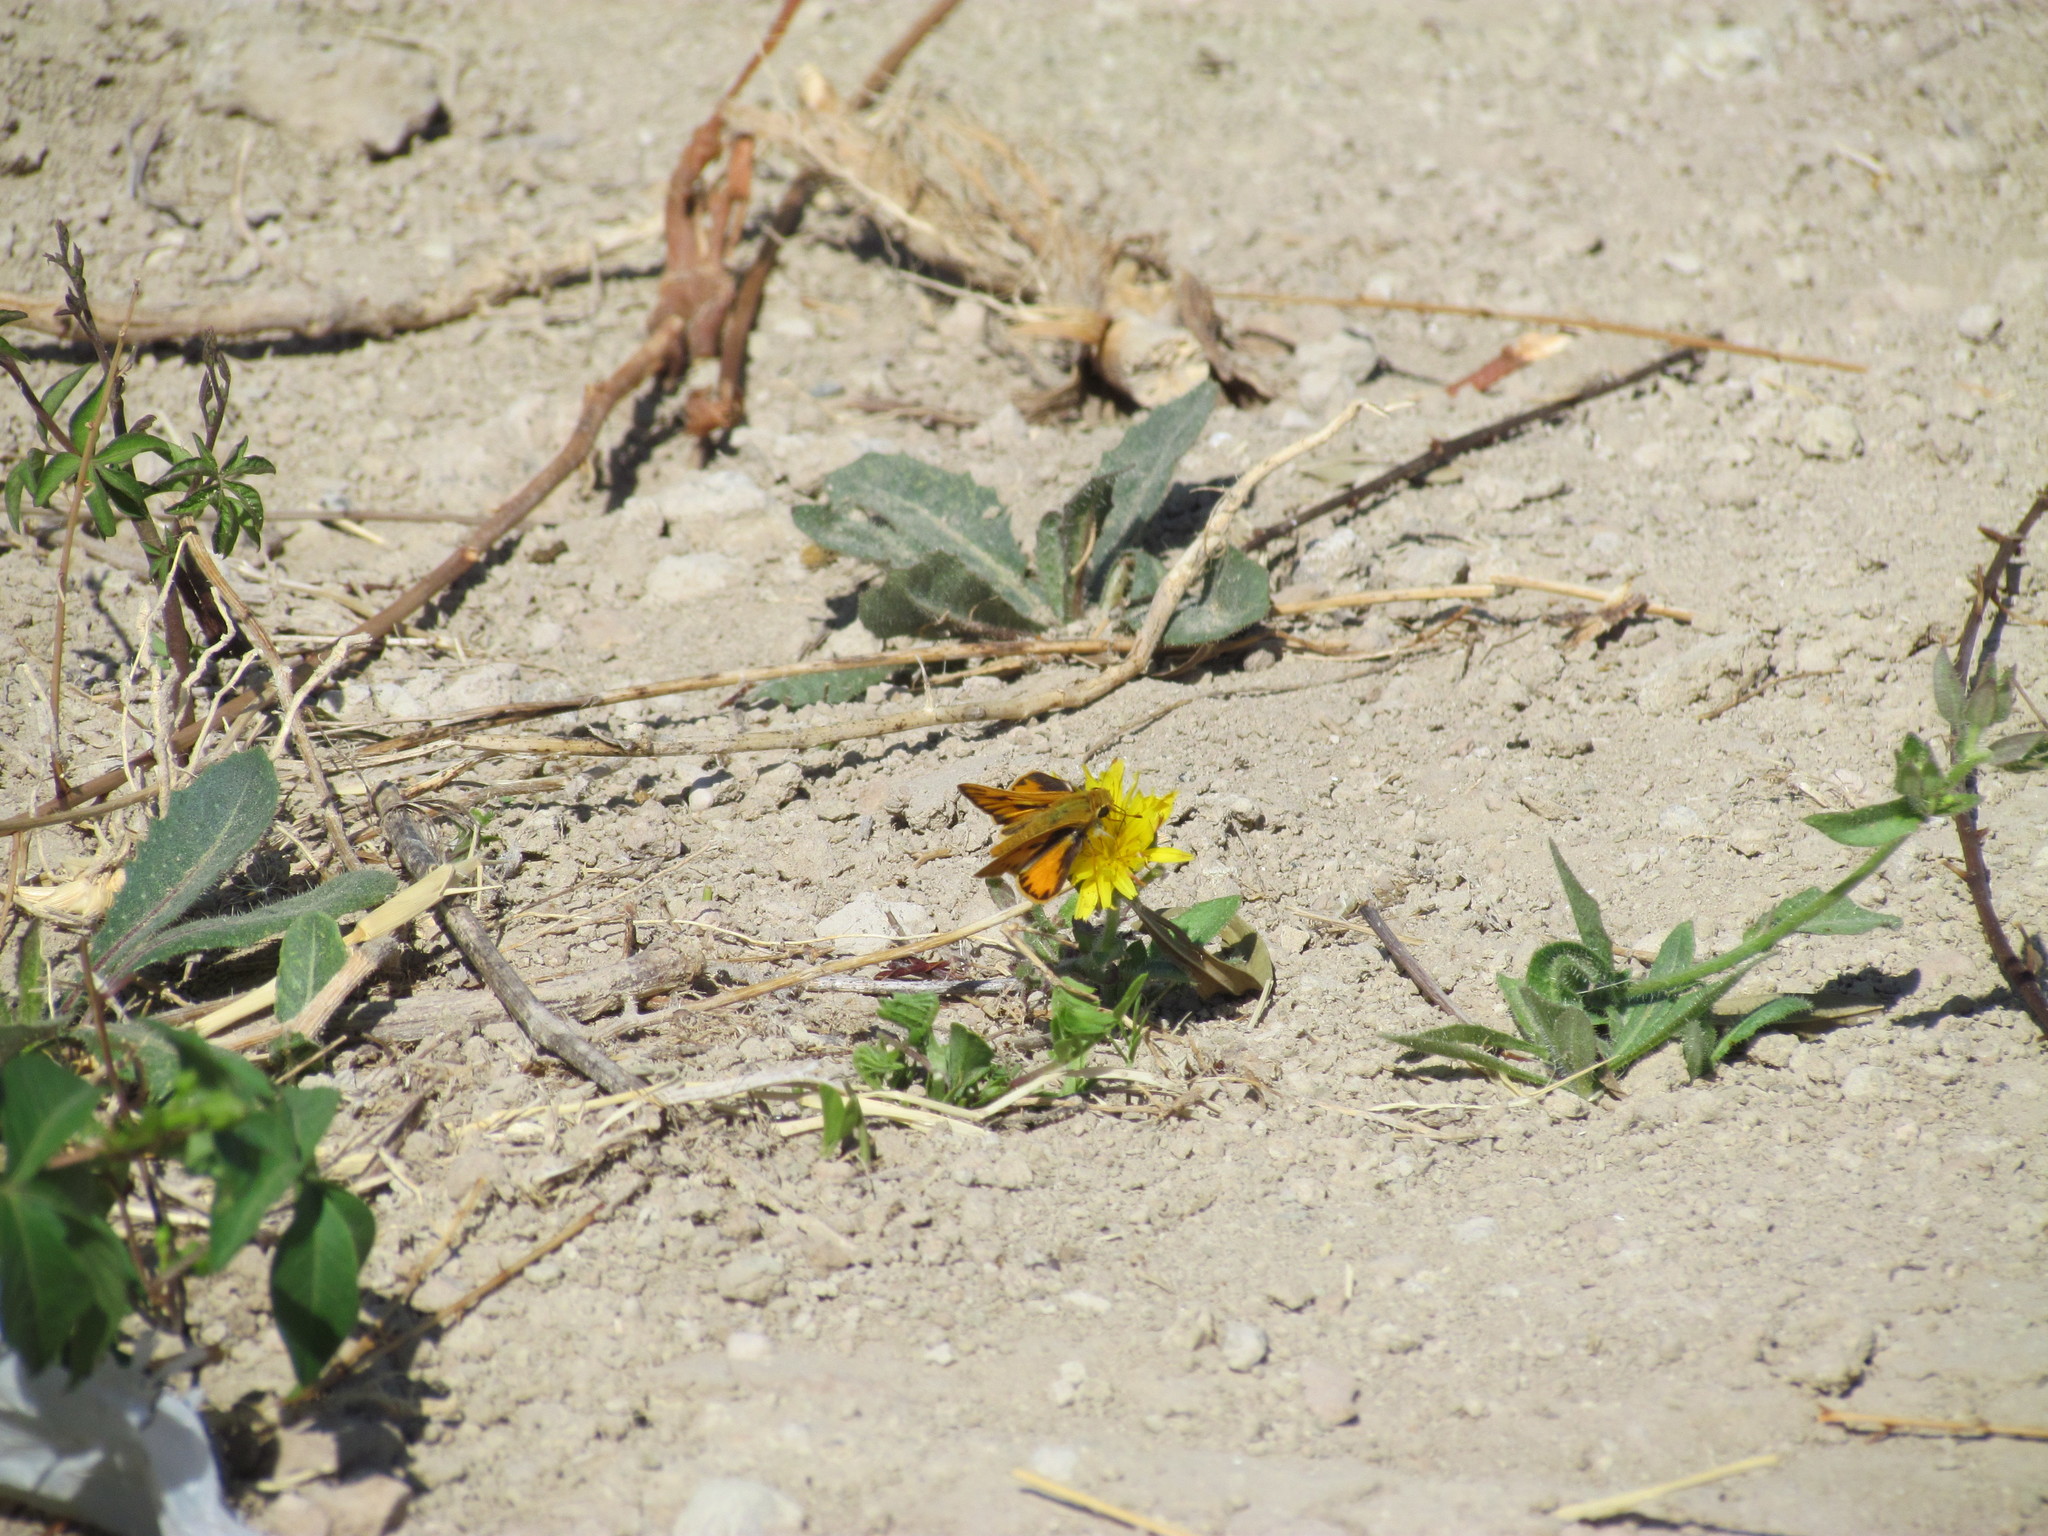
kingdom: Animalia
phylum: Arthropoda
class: Insecta
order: Lepidoptera
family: Hesperiidae
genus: Hylephila
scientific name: Hylephila phyleus
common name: Fiery skipper
